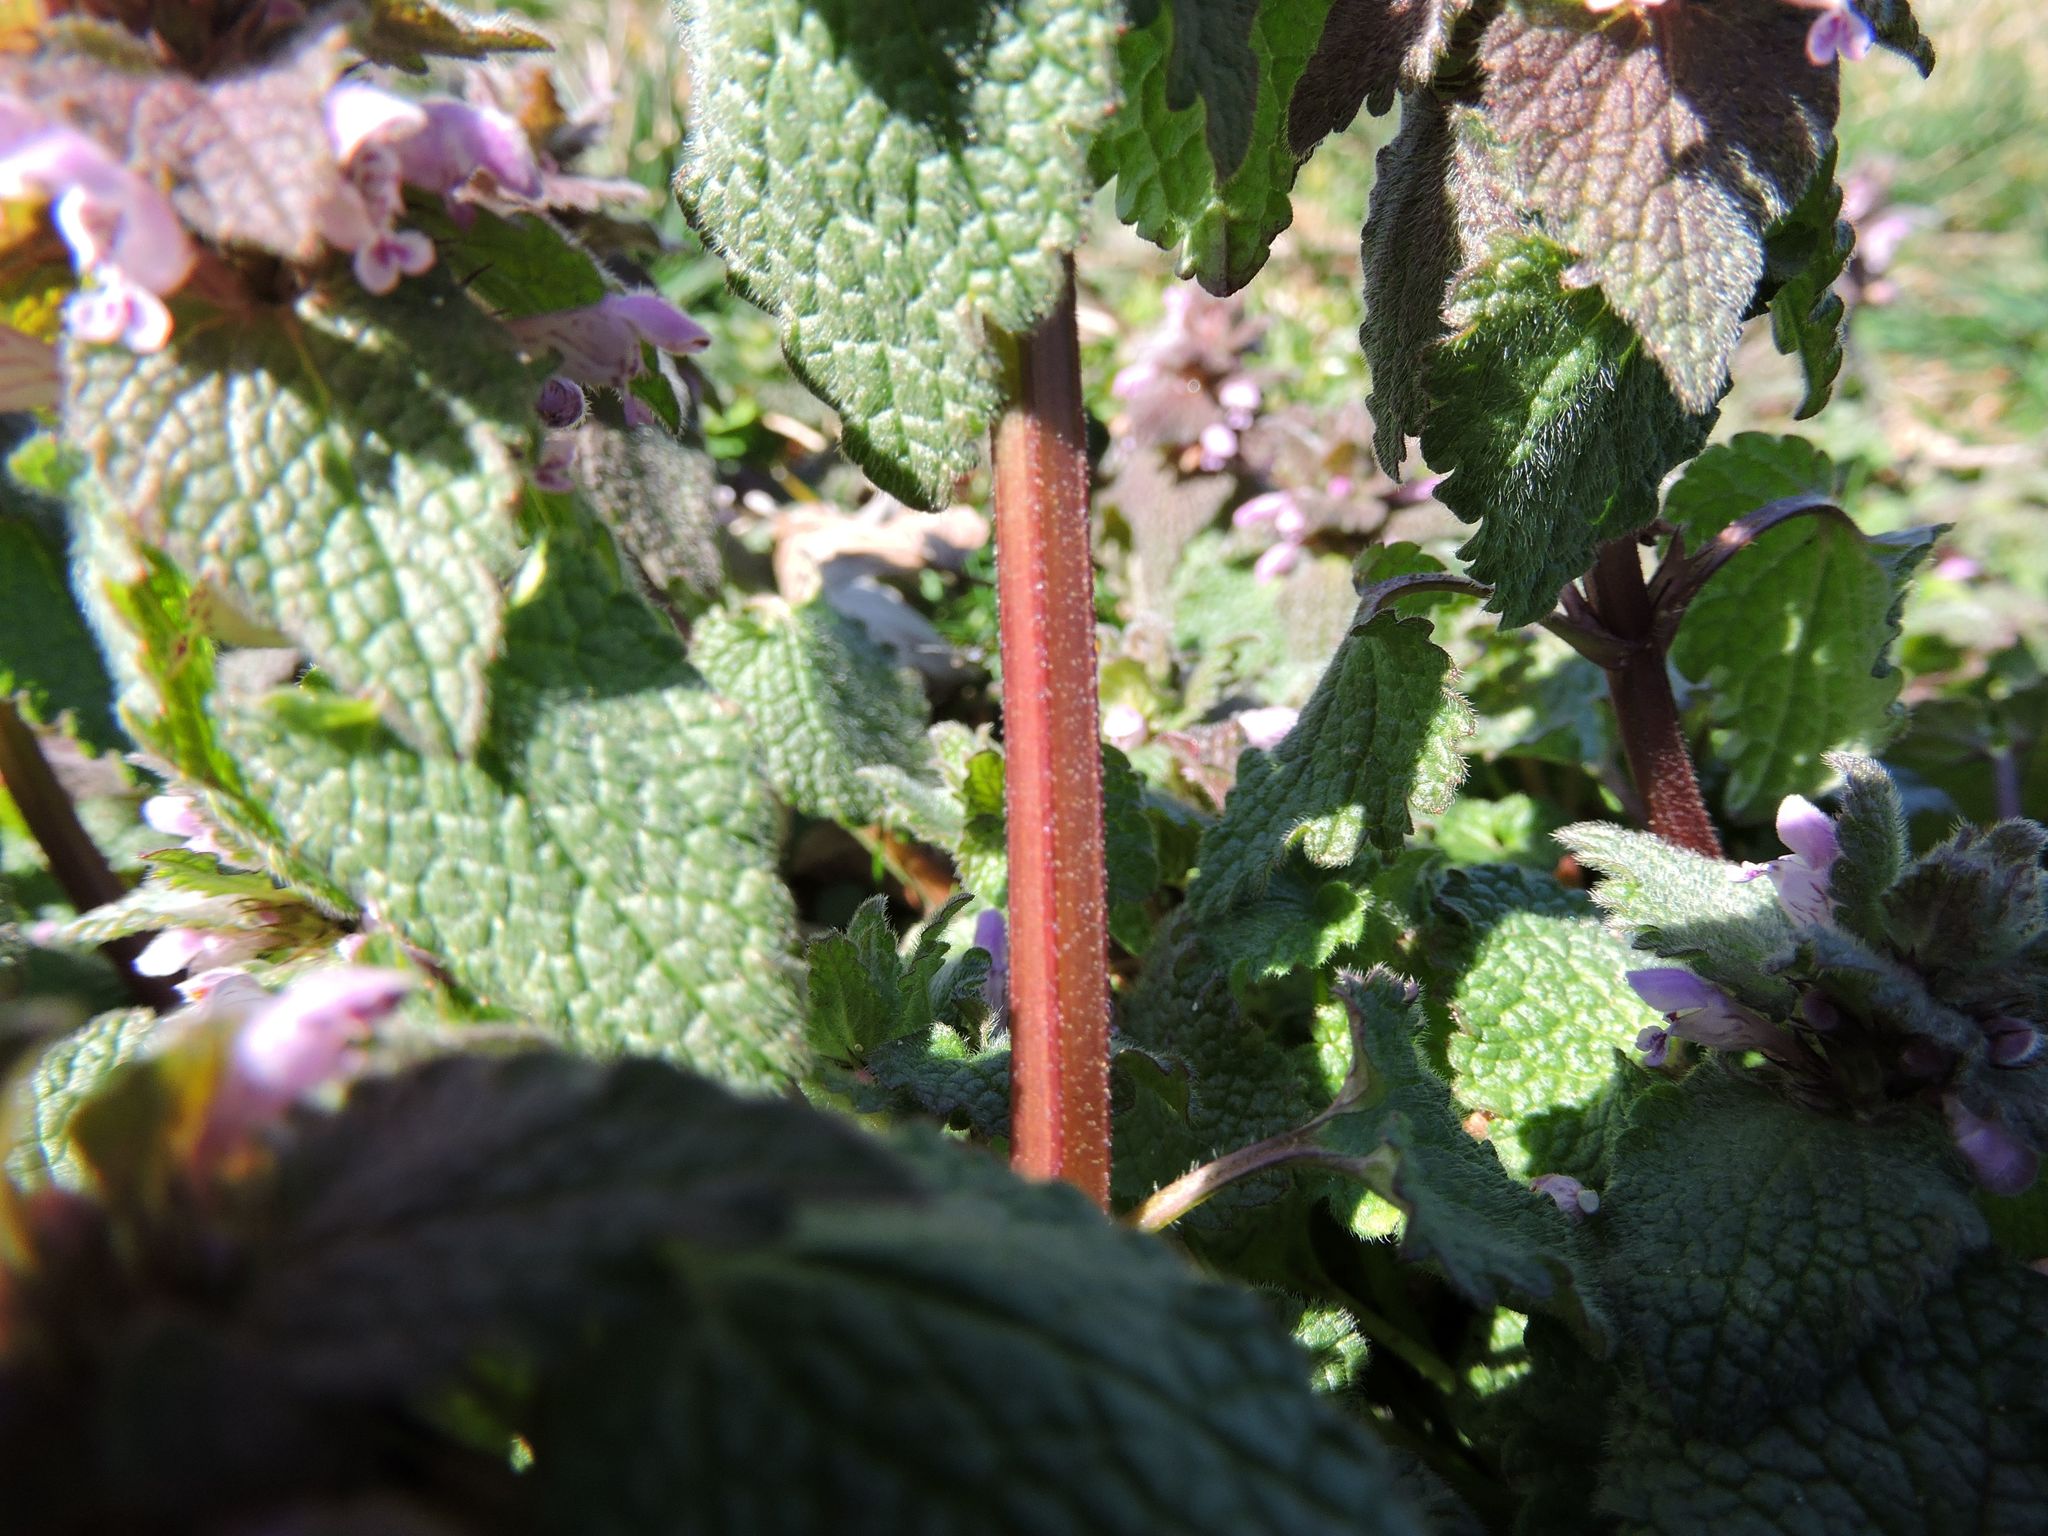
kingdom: Plantae
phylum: Tracheophyta
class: Magnoliopsida
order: Lamiales
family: Lamiaceae
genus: Lamium
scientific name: Lamium purpureum
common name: Red dead-nettle
